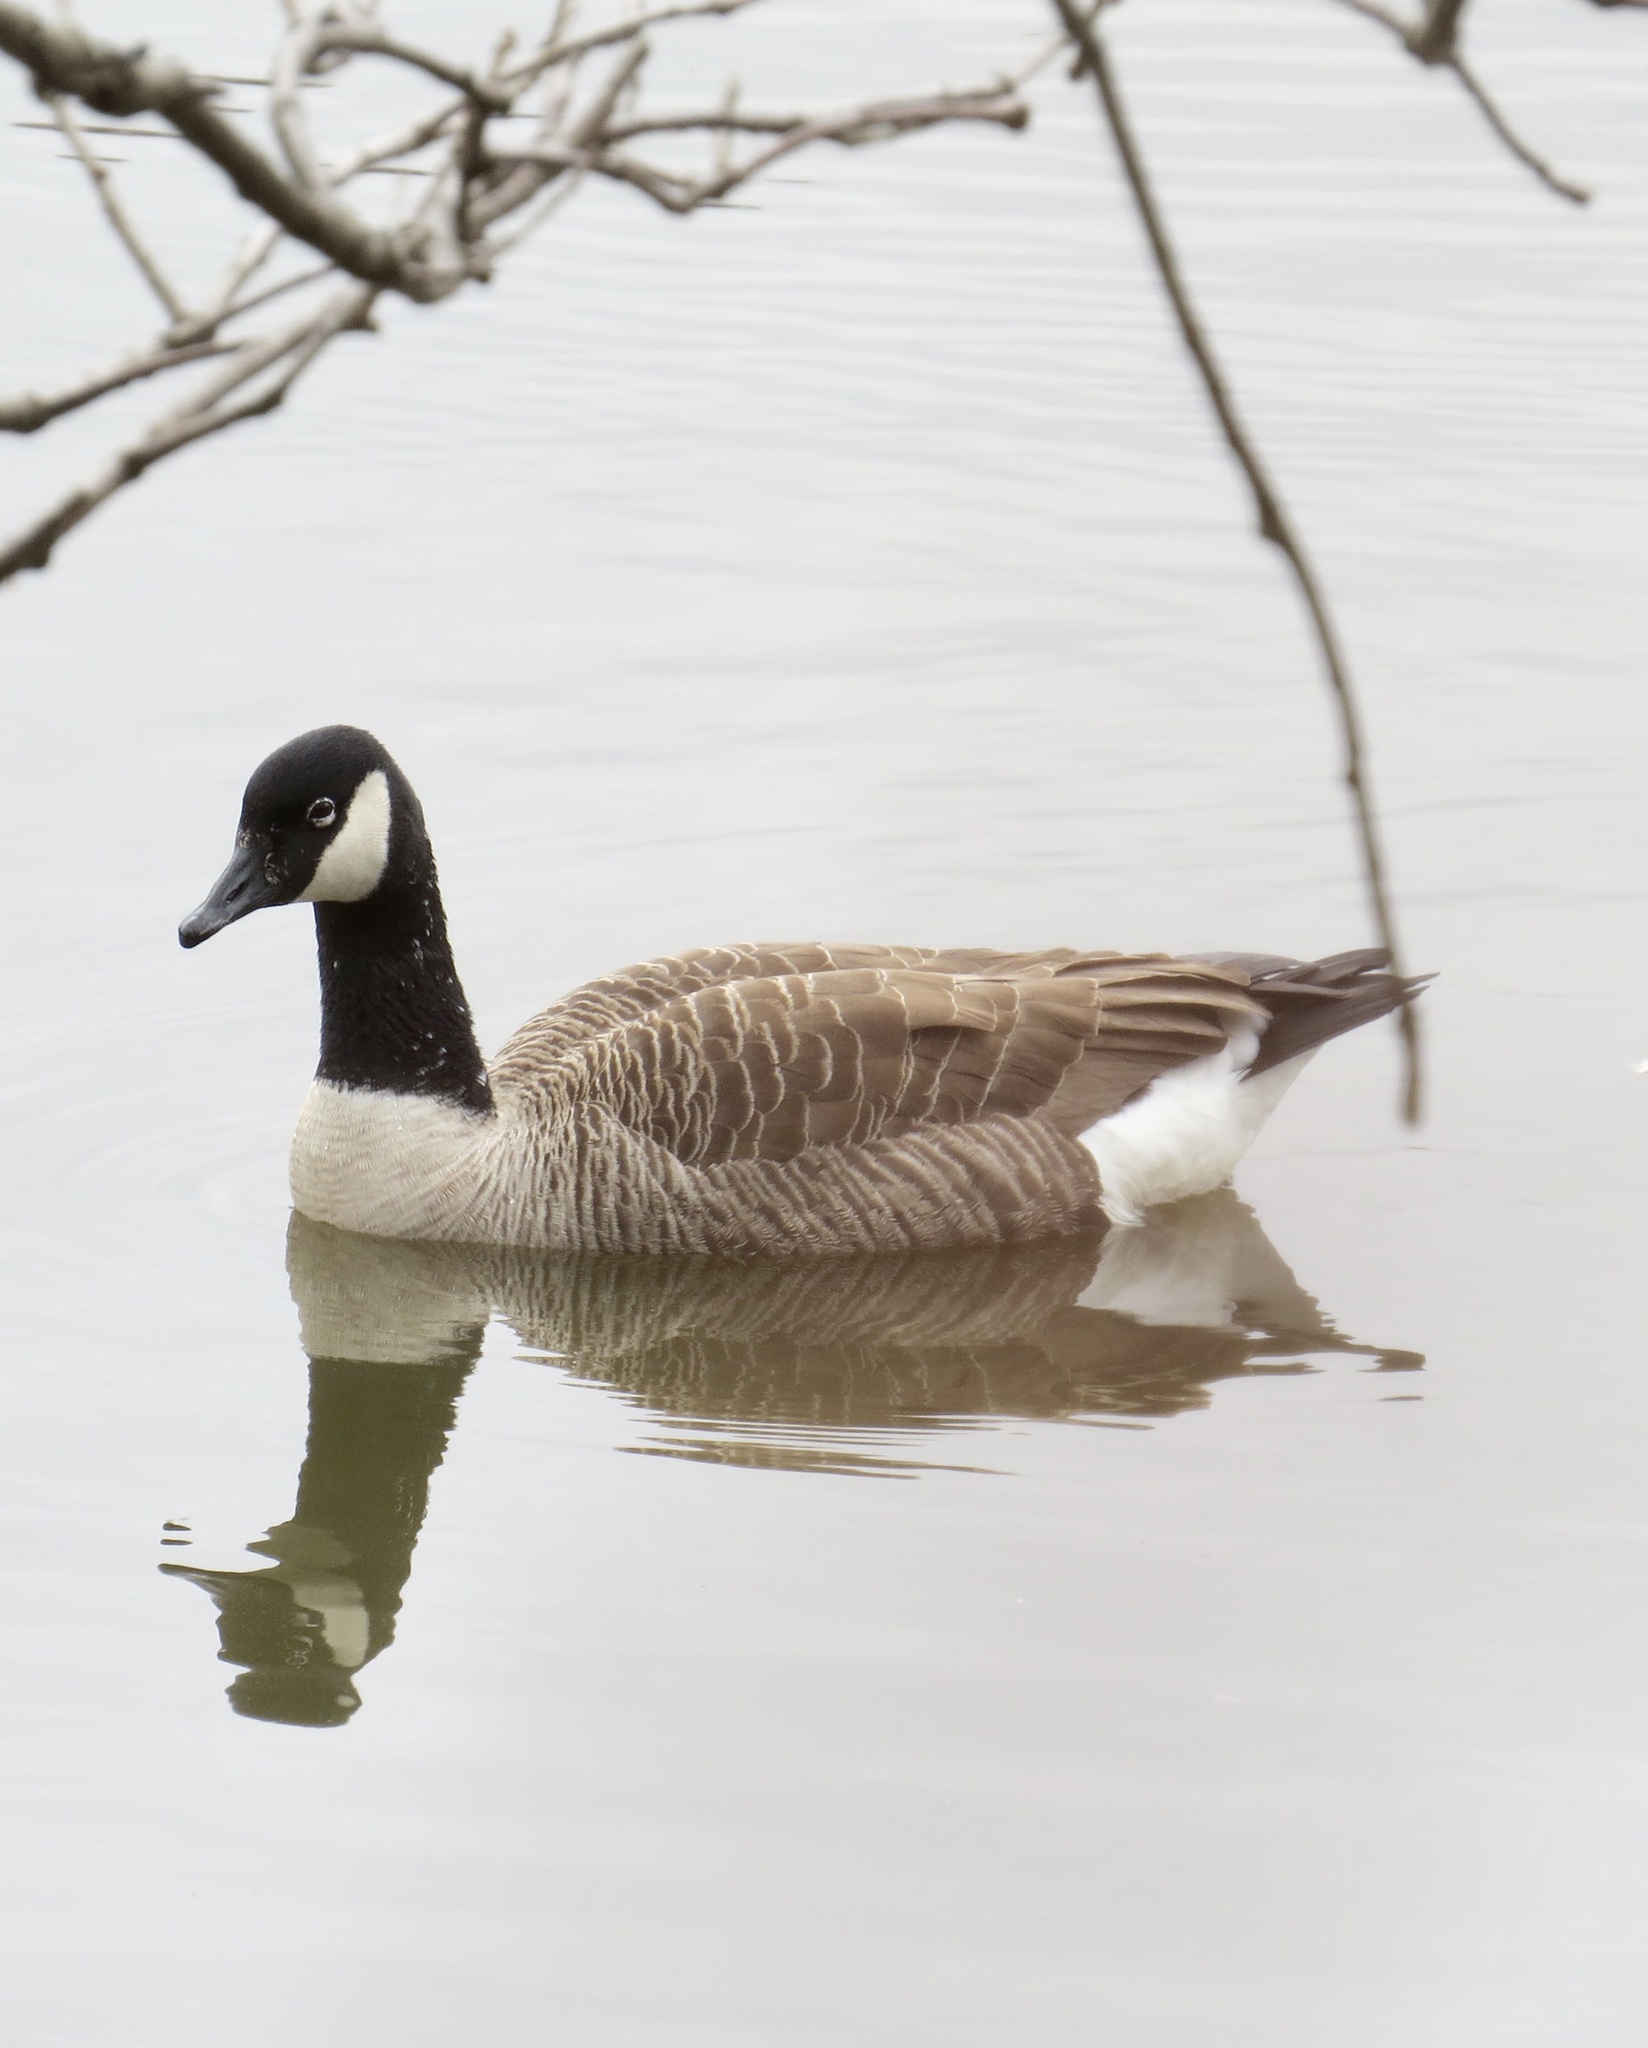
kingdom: Animalia
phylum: Chordata
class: Aves
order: Anseriformes
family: Anatidae
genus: Branta
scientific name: Branta canadensis
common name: Canada goose
